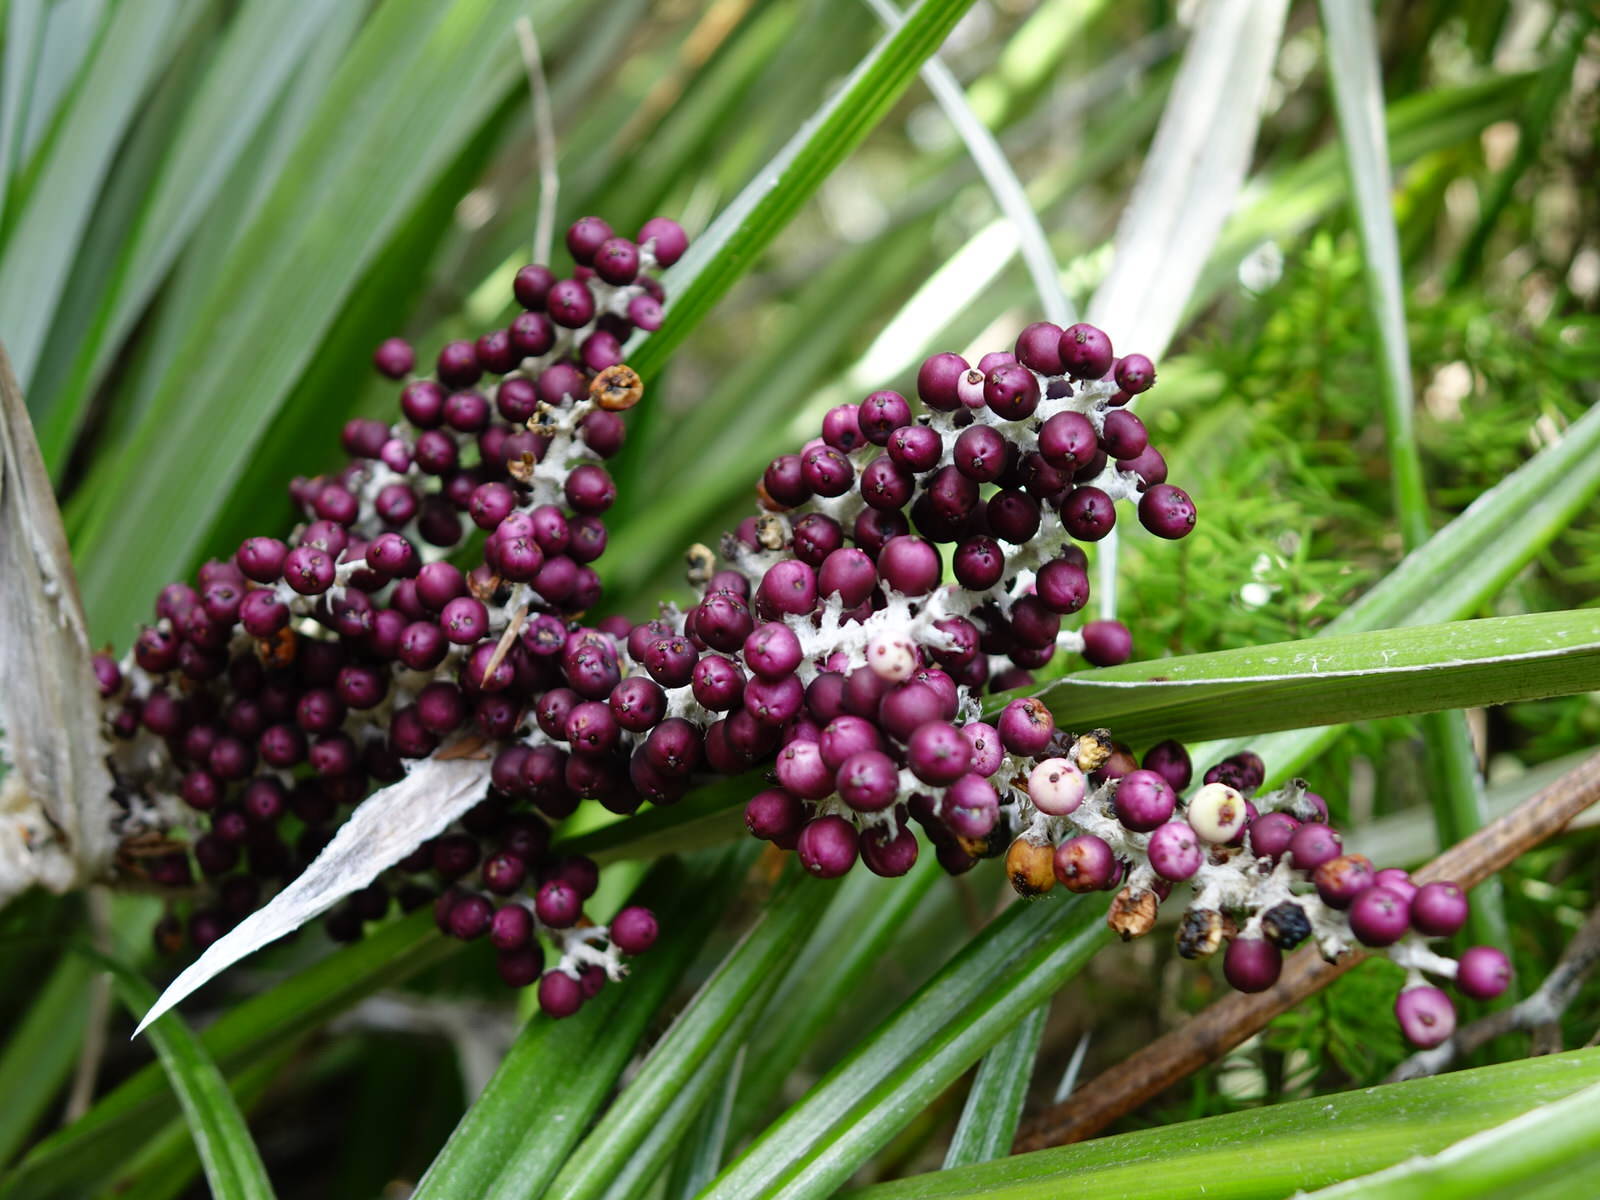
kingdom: Plantae
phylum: Tracheophyta
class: Liliopsida
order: Asparagales
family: Asteliaceae
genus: Astelia
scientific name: Astelia banksii
